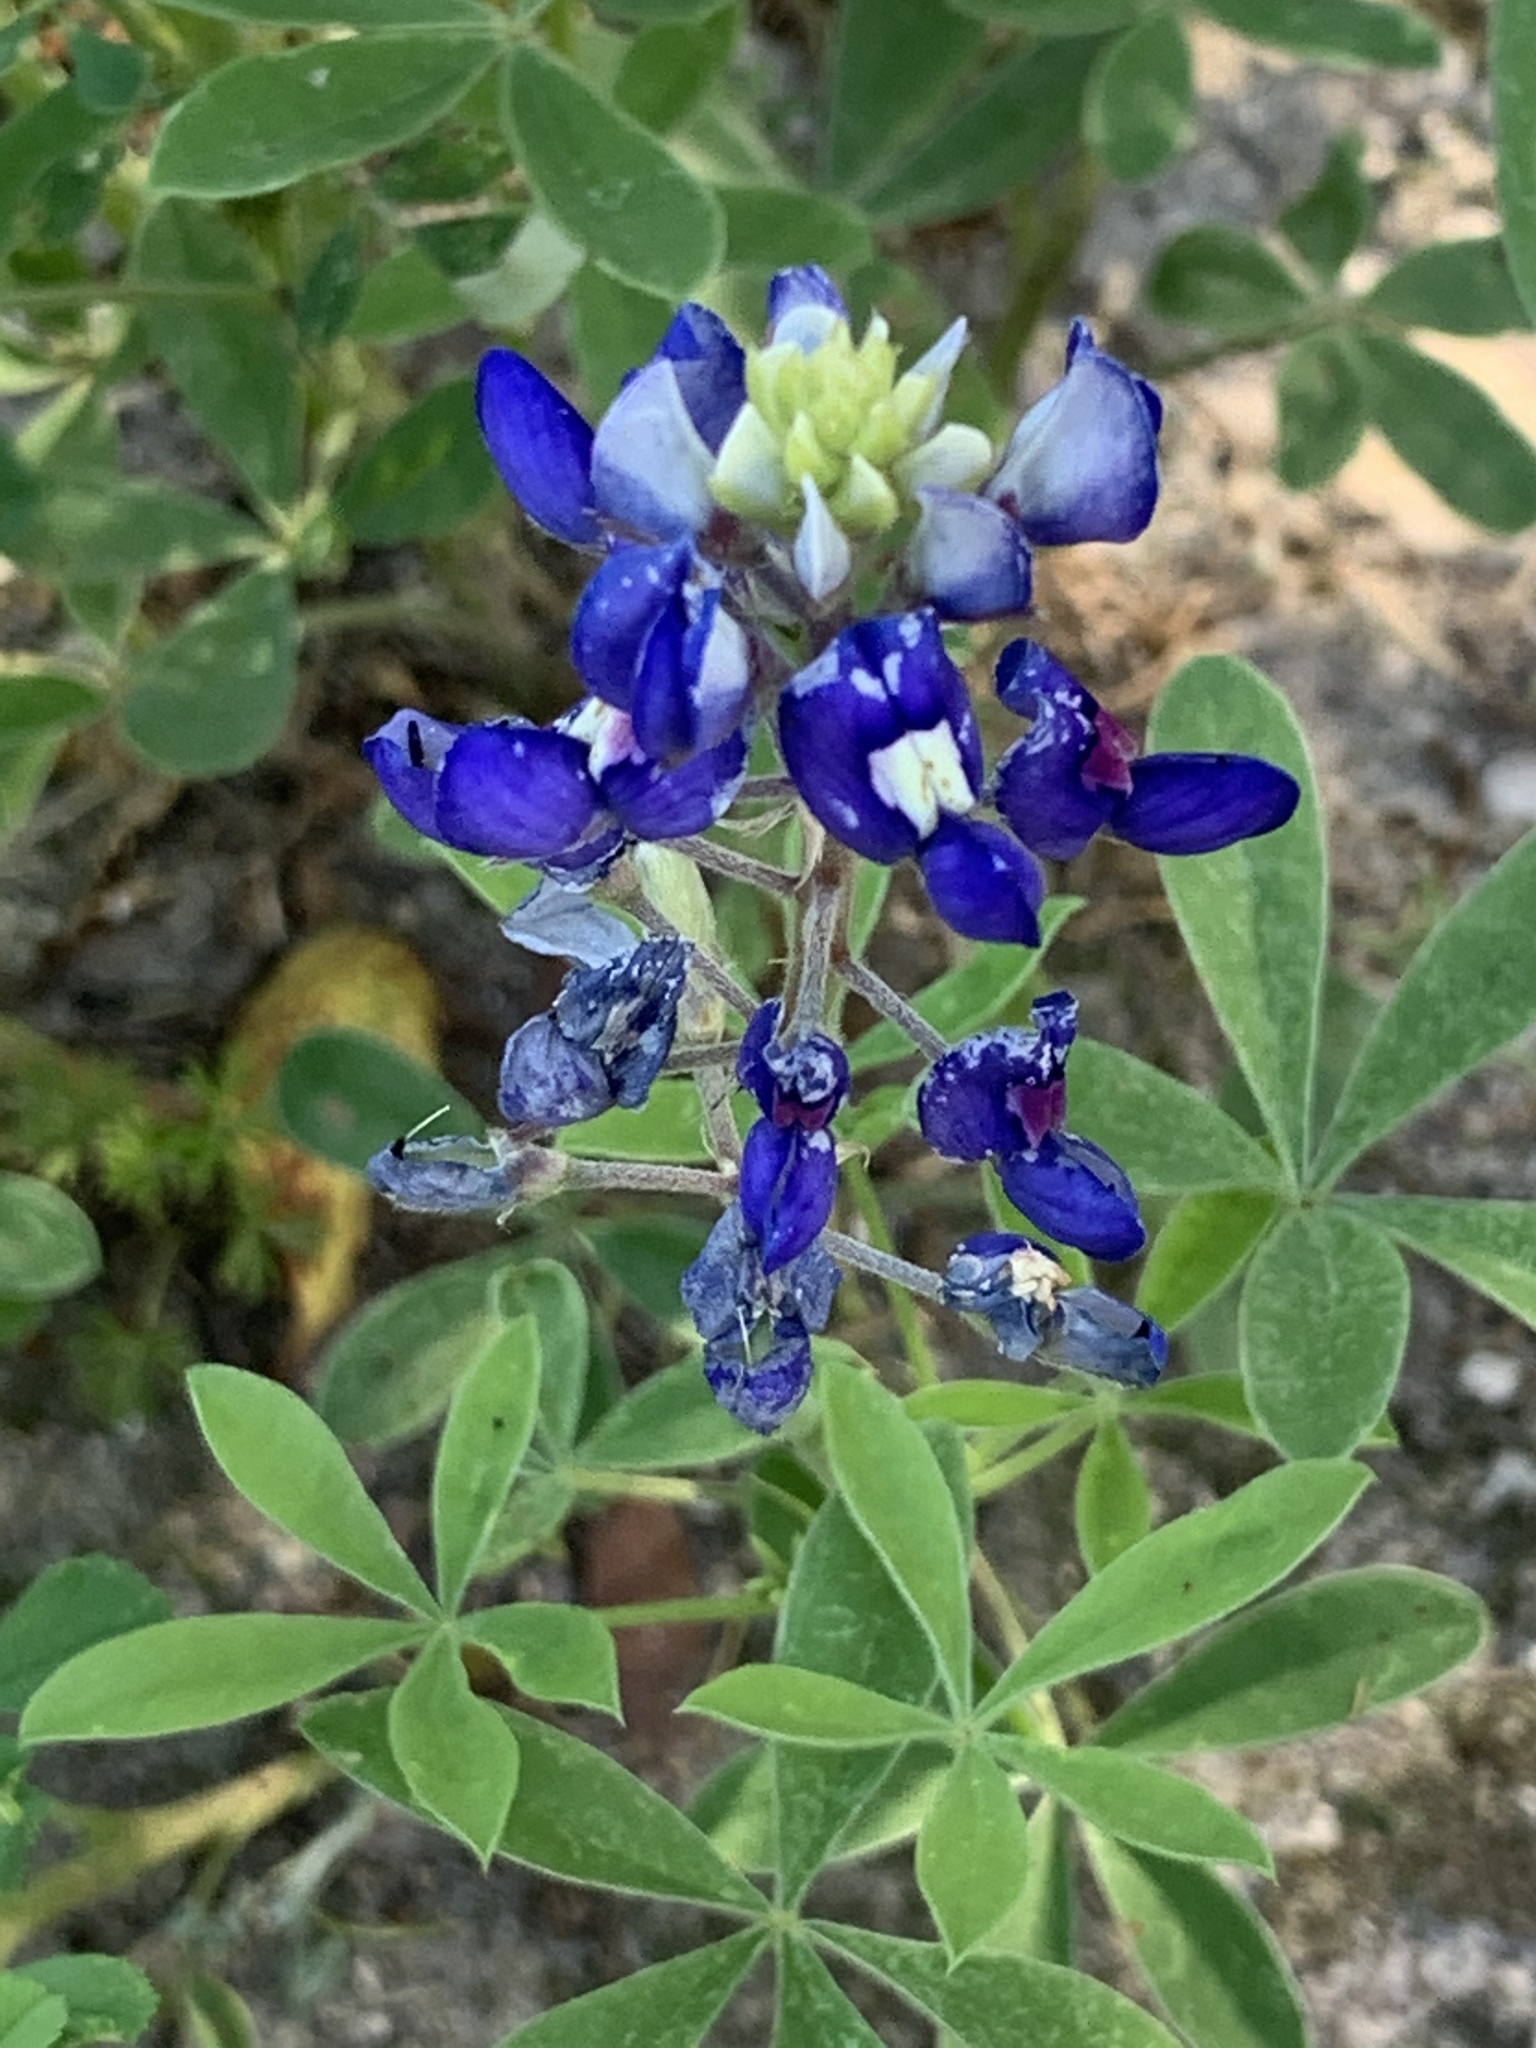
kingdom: Plantae
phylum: Tracheophyta
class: Magnoliopsida
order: Fabales
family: Fabaceae
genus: Lupinus
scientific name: Lupinus texensis
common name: Texas bluebonnet
